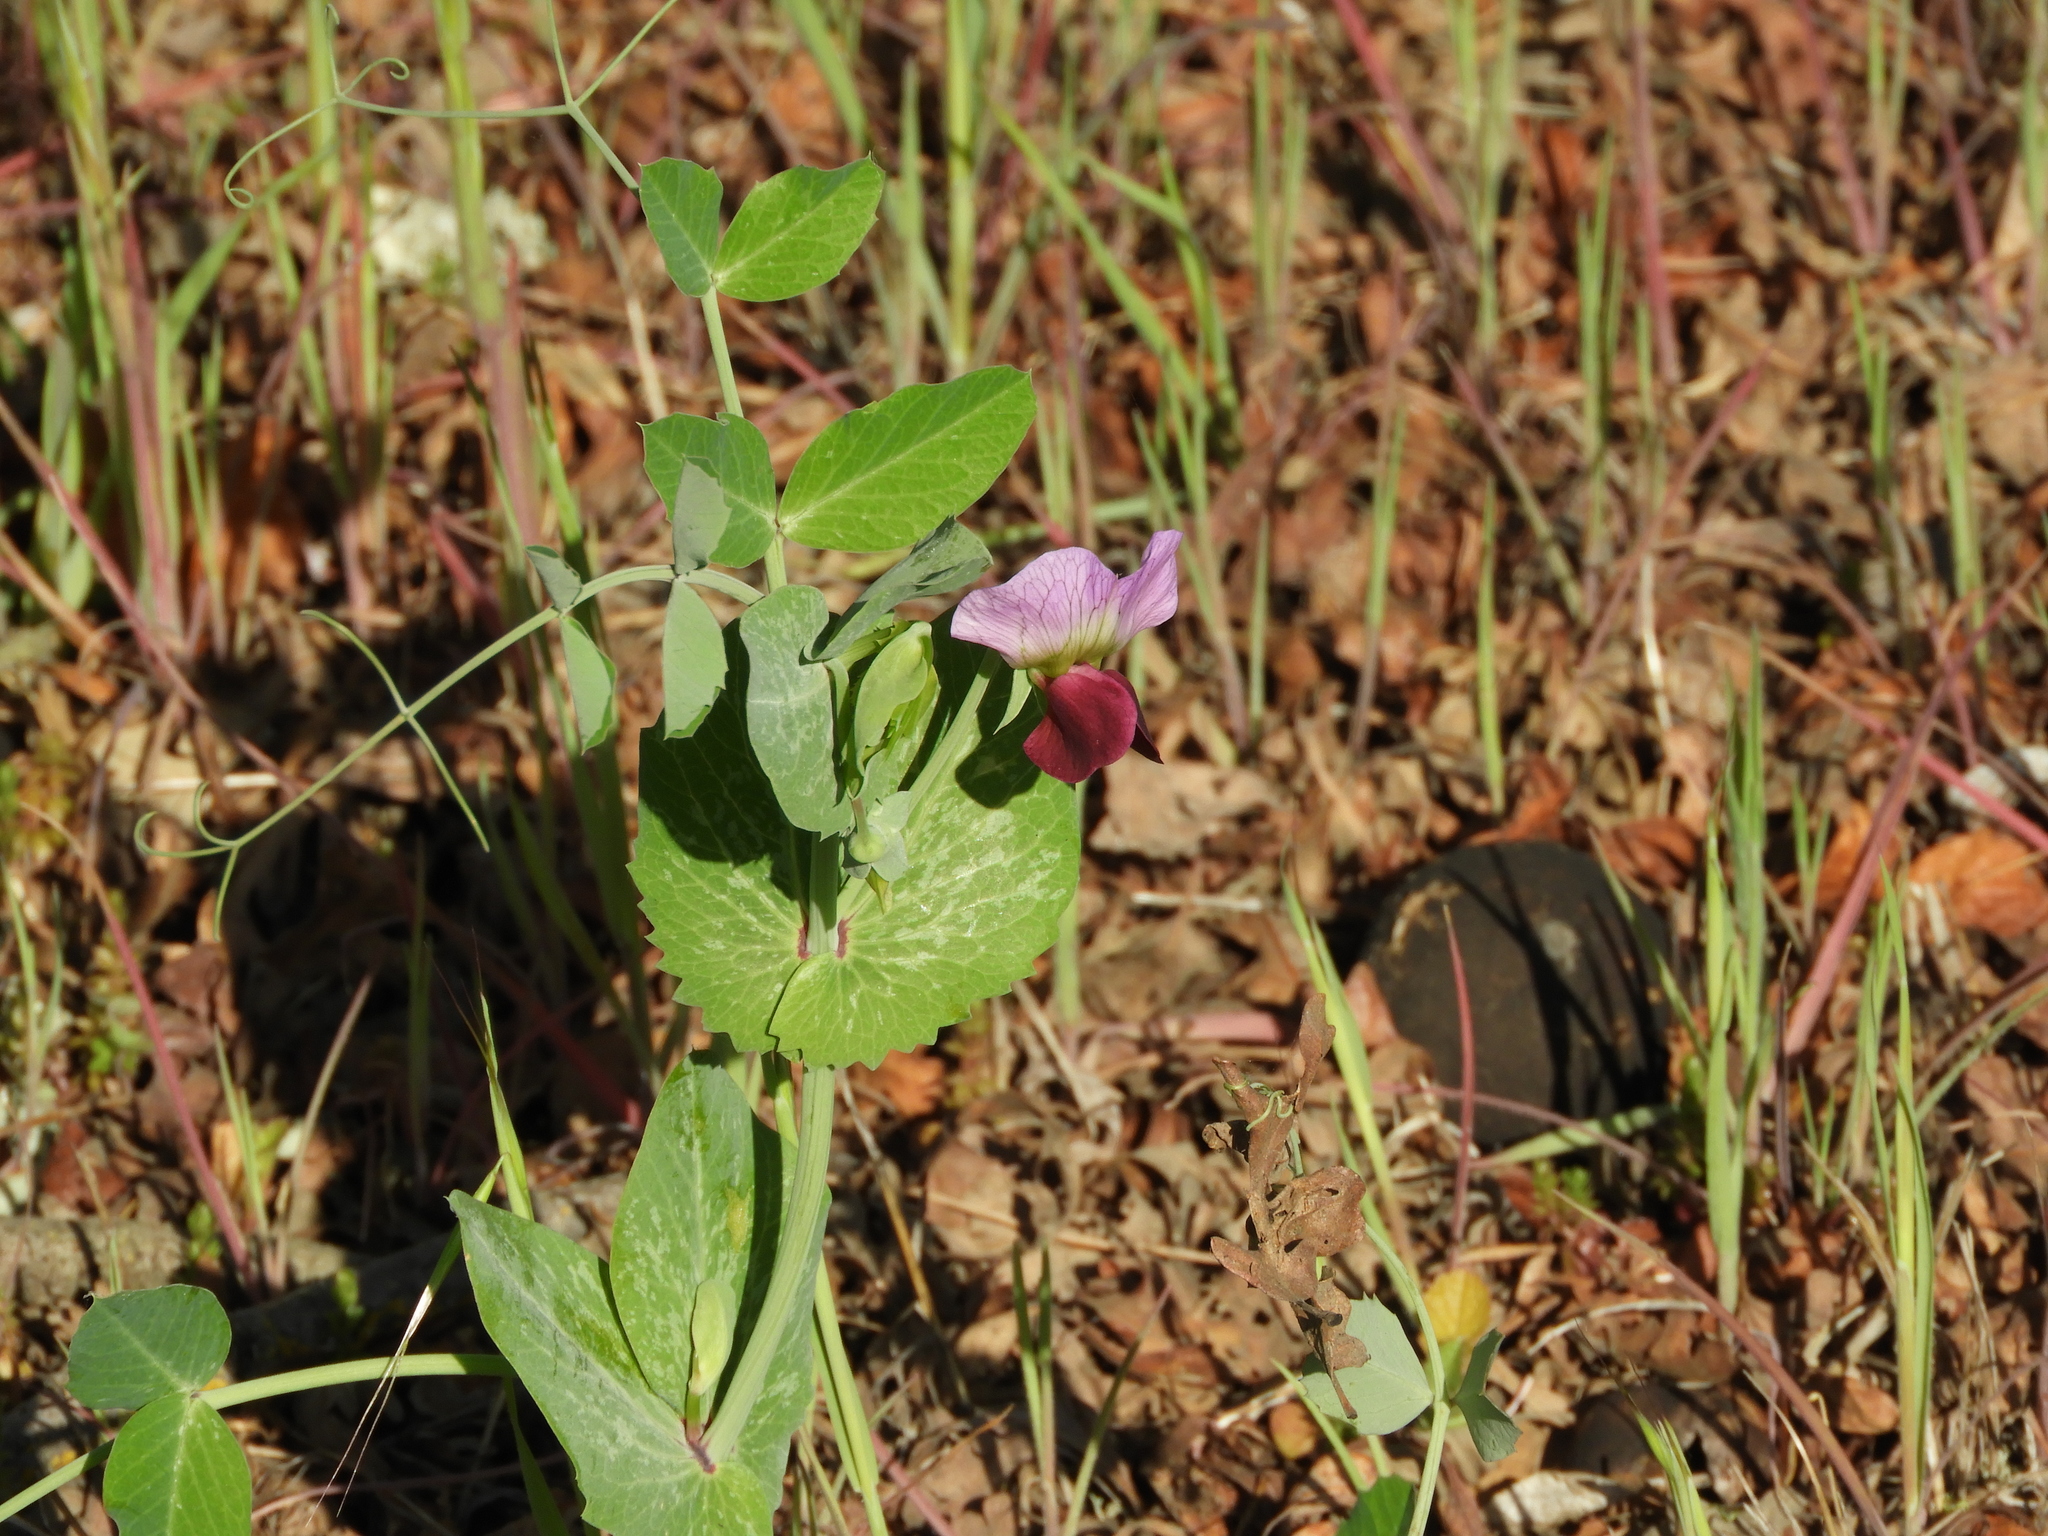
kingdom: Plantae
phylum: Tracheophyta
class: Magnoliopsida
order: Fabales
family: Fabaceae
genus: Lathyrus
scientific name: Lathyrus oleraceus
